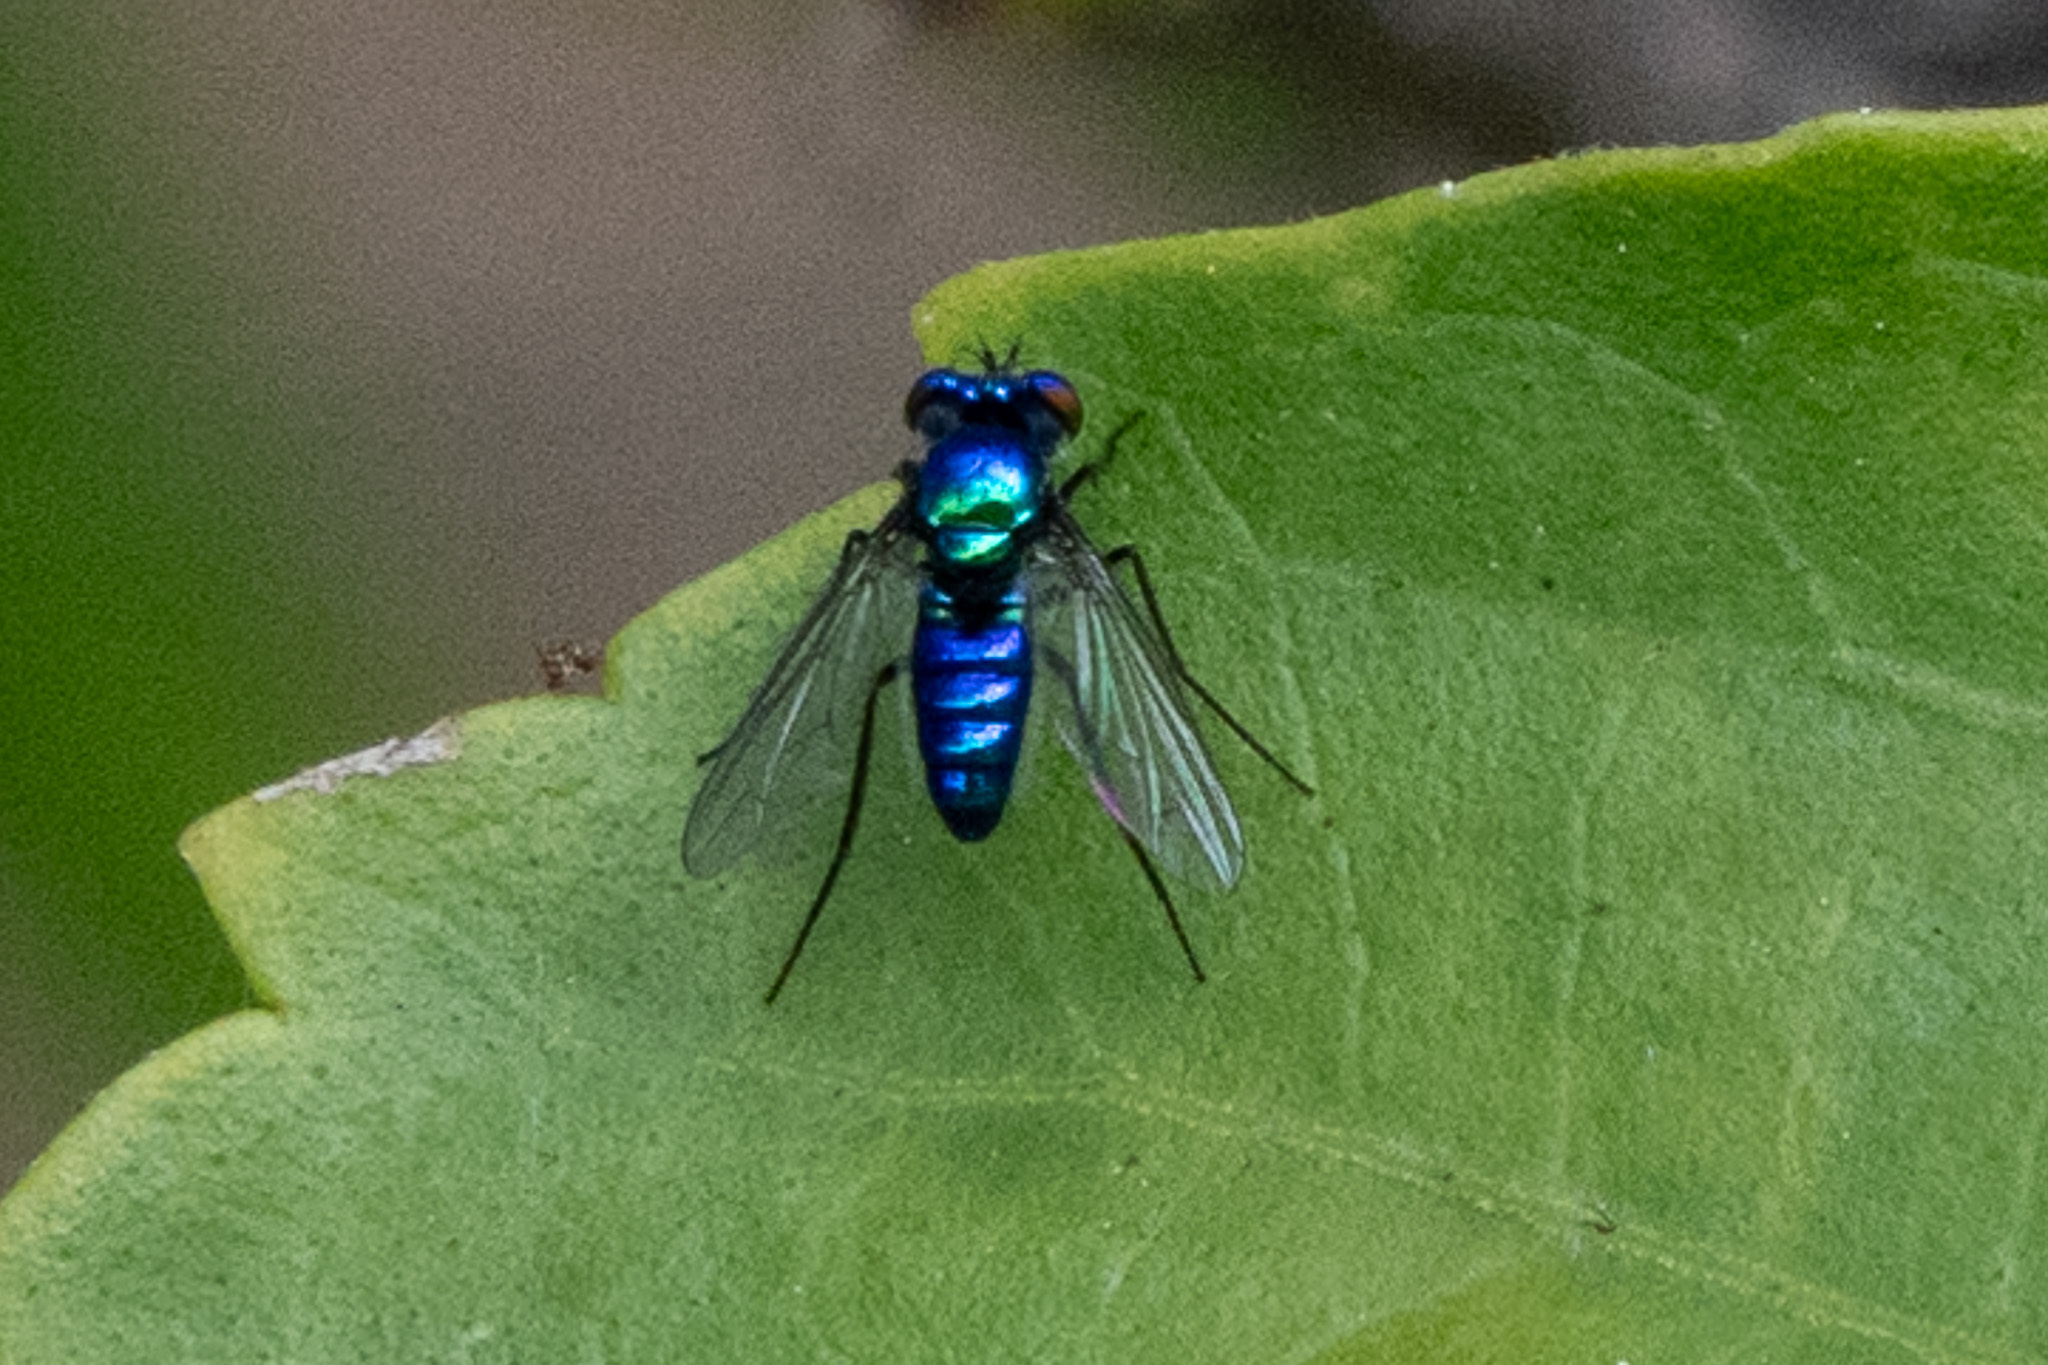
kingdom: Animalia
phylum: Arthropoda
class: Insecta
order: Diptera
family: Dolichopodidae
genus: Condylostylus
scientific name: Condylostylus mundus
